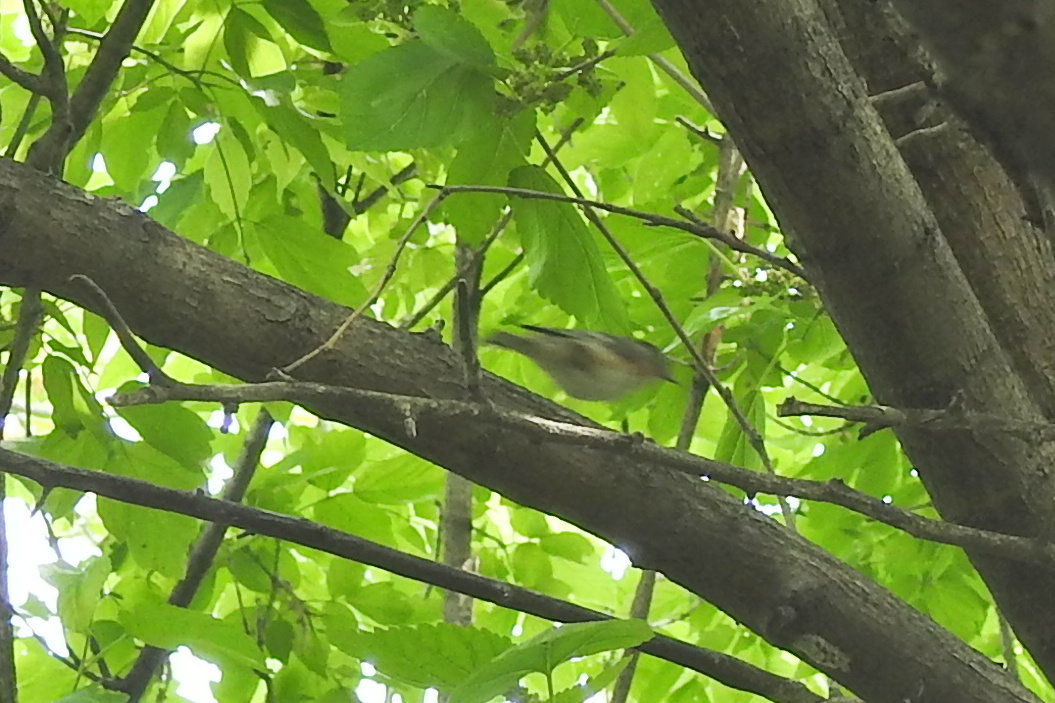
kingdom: Animalia
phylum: Chordata
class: Aves
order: Passeriformes
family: Parulidae
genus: Setophaga
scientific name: Setophaga castanea
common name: Bay-breasted warbler
